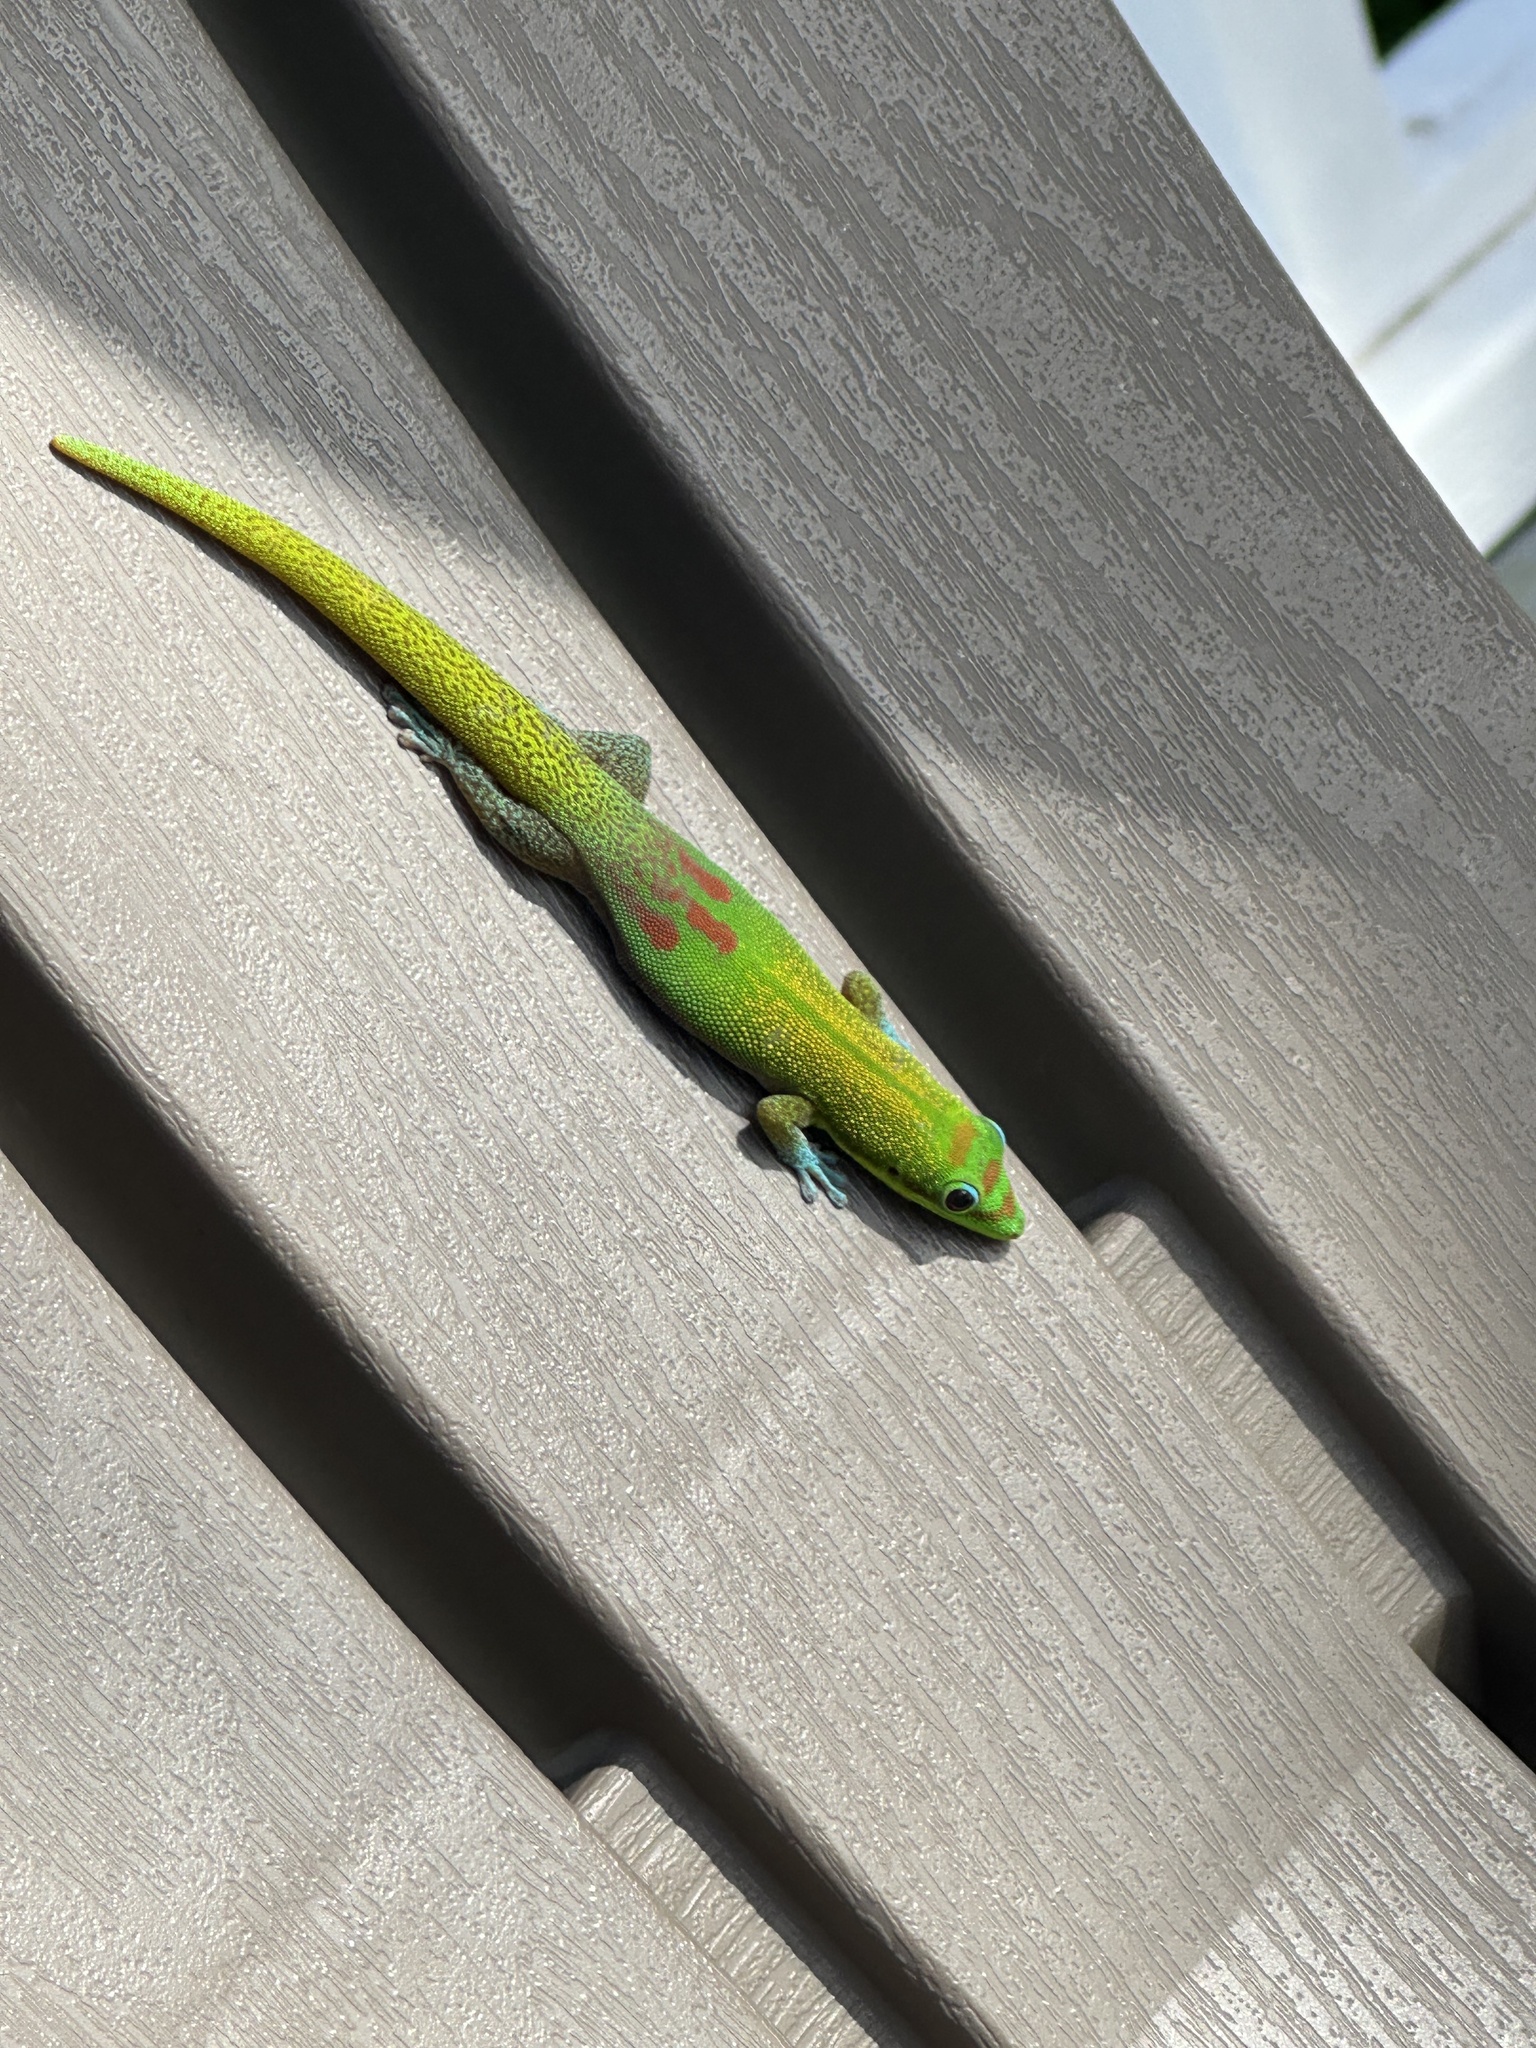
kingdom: Animalia
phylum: Chordata
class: Squamata
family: Gekkonidae
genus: Phelsuma
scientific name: Phelsuma laticauda
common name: Gold dust day gecko
